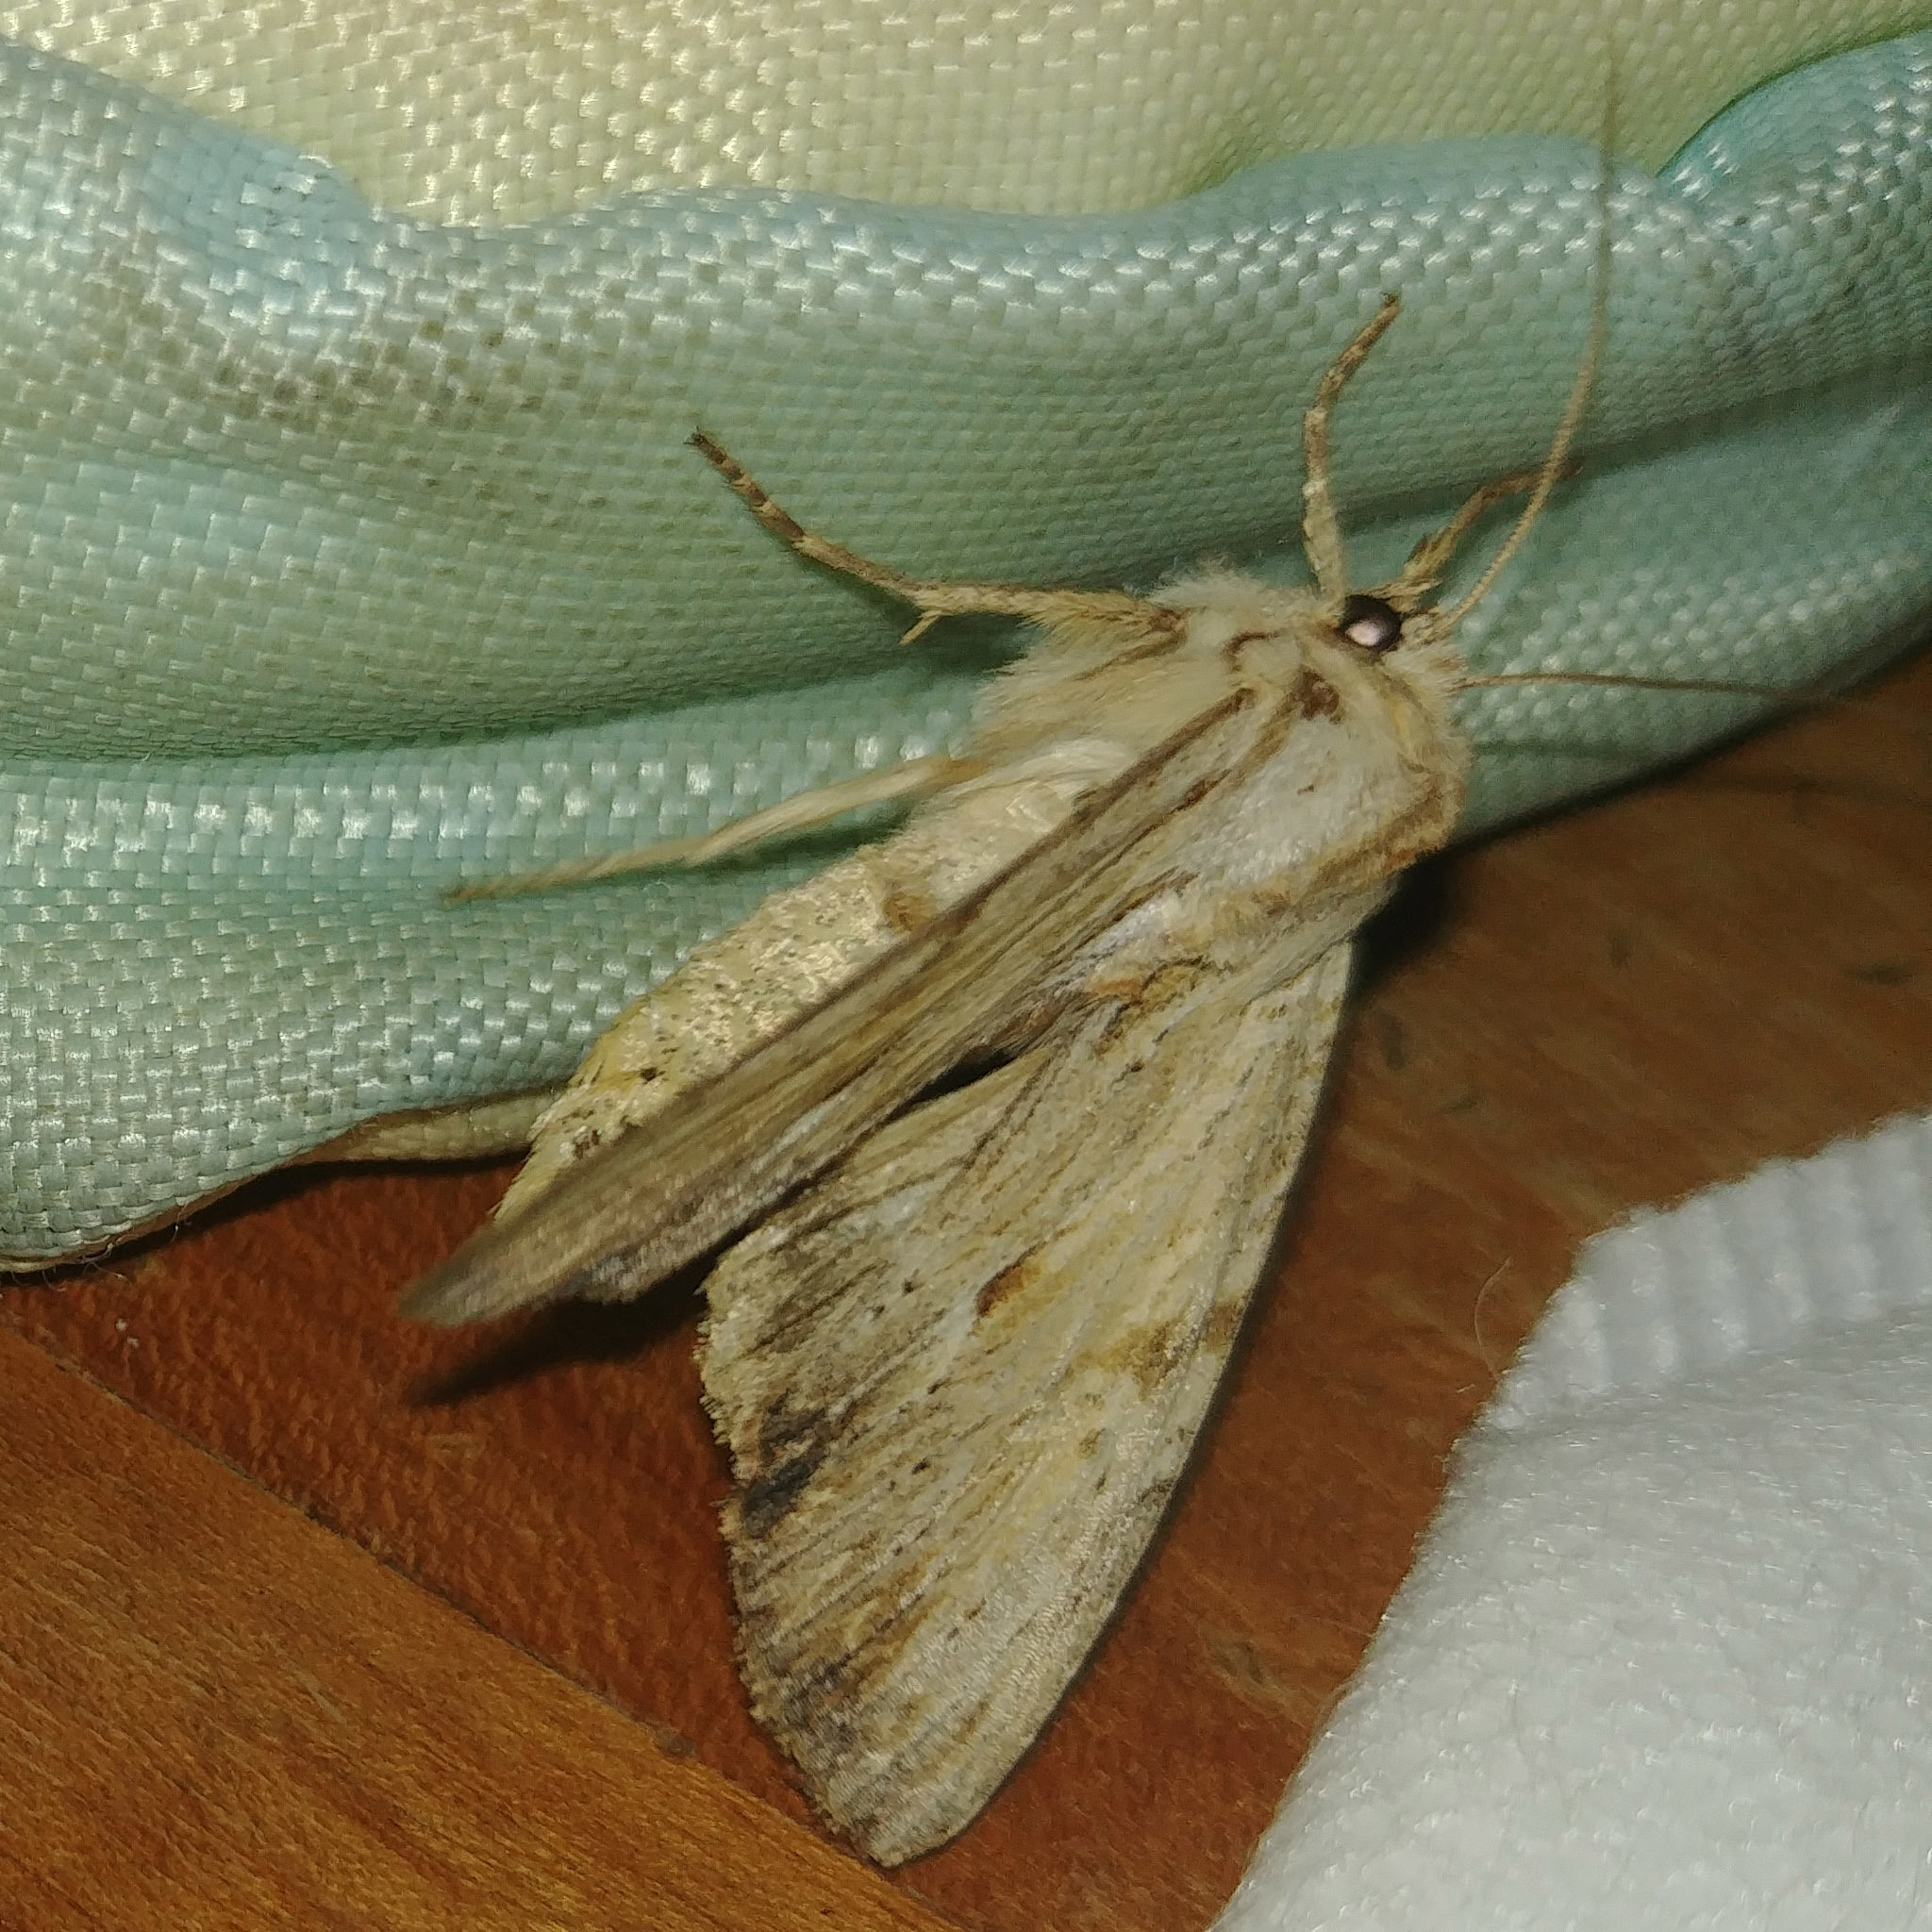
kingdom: Animalia
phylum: Arthropoda
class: Insecta
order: Lepidoptera
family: Noctuidae
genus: Apamea
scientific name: Apamea lithoxylaea
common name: Light arches
